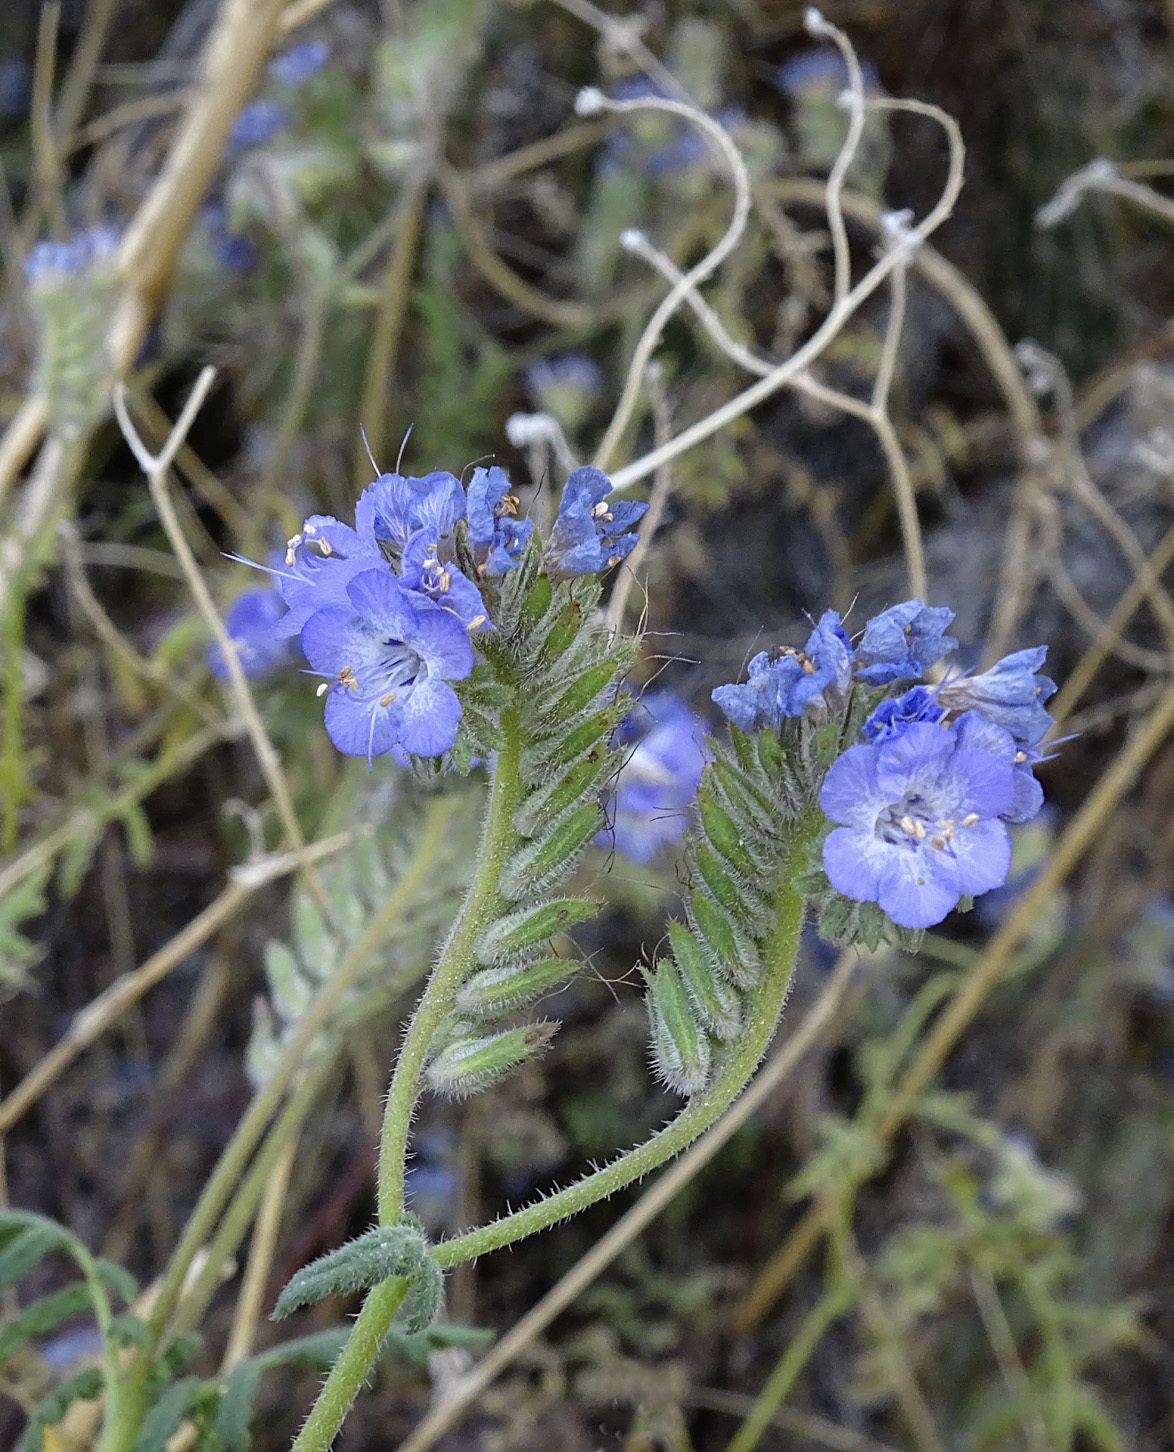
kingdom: Plantae
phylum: Tracheophyta
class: Magnoliopsida
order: Boraginales
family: Hydrophyllaceae
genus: Phacelia
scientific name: Phacelia distans
